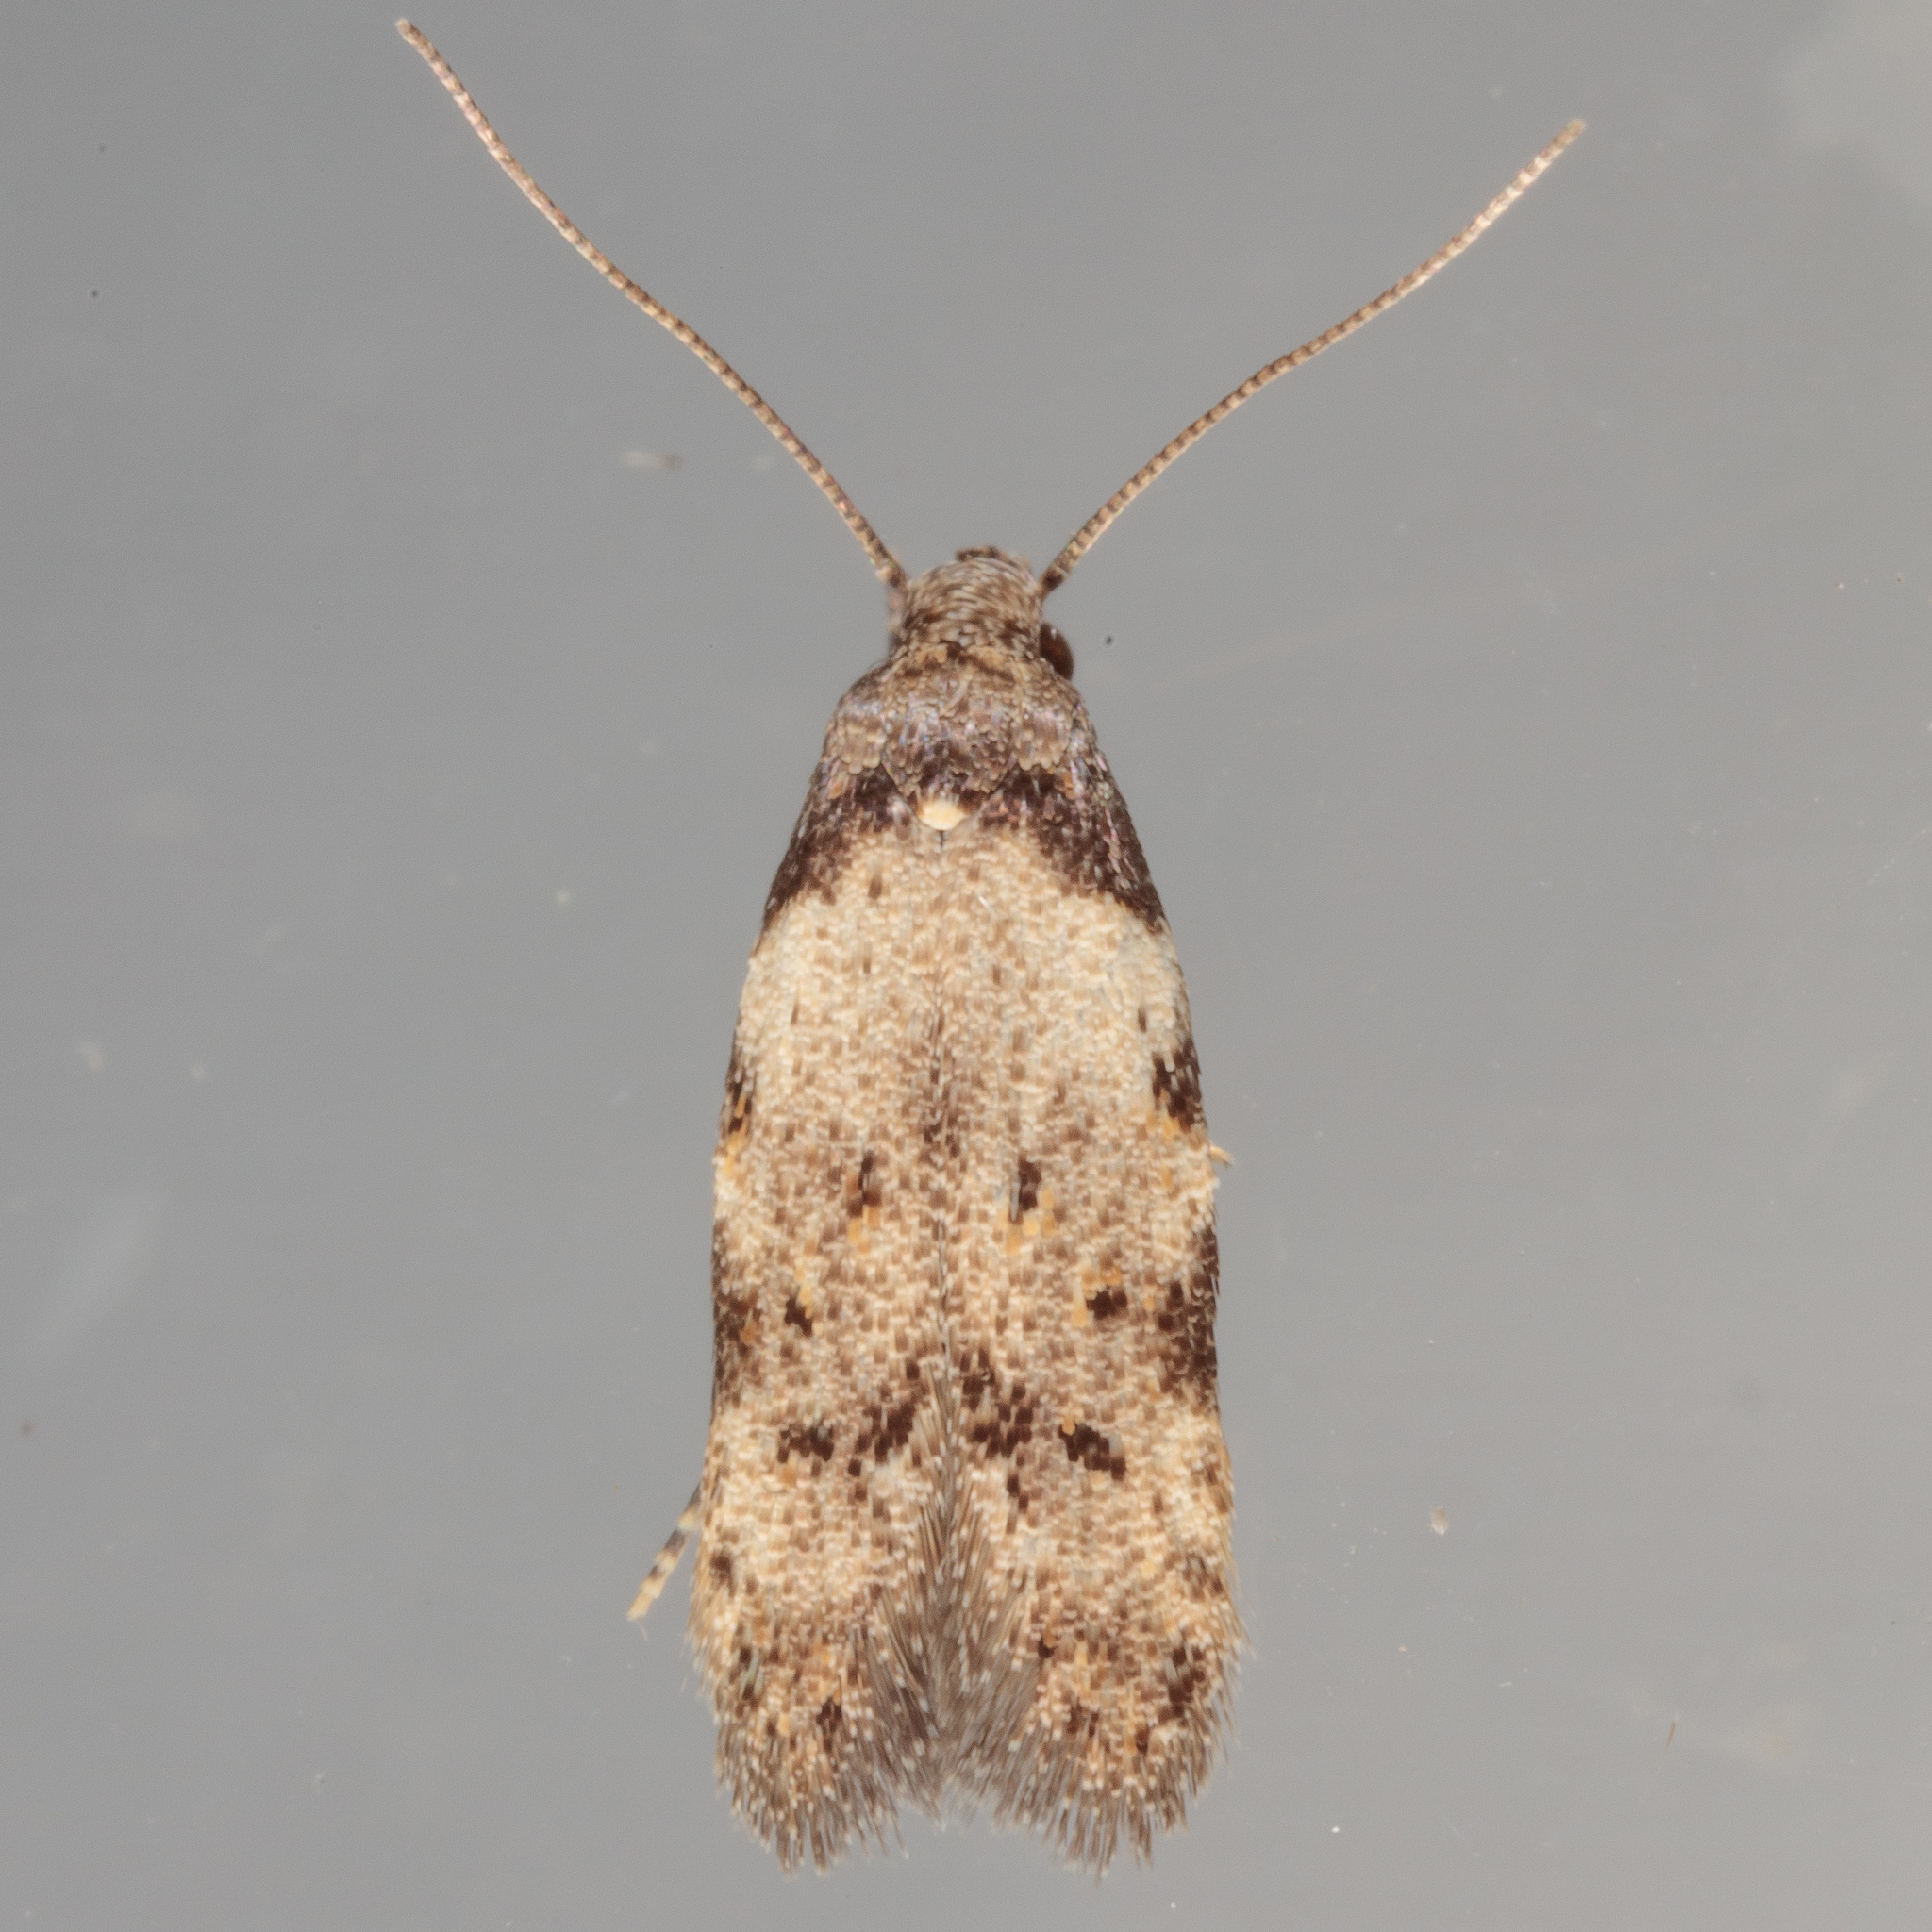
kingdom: Animalia
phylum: Arthropoda
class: Insecta
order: Lepidoptera
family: Autostichidae
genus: Taygete
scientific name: Taygete attributella
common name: Triangle-marked twirler moth
